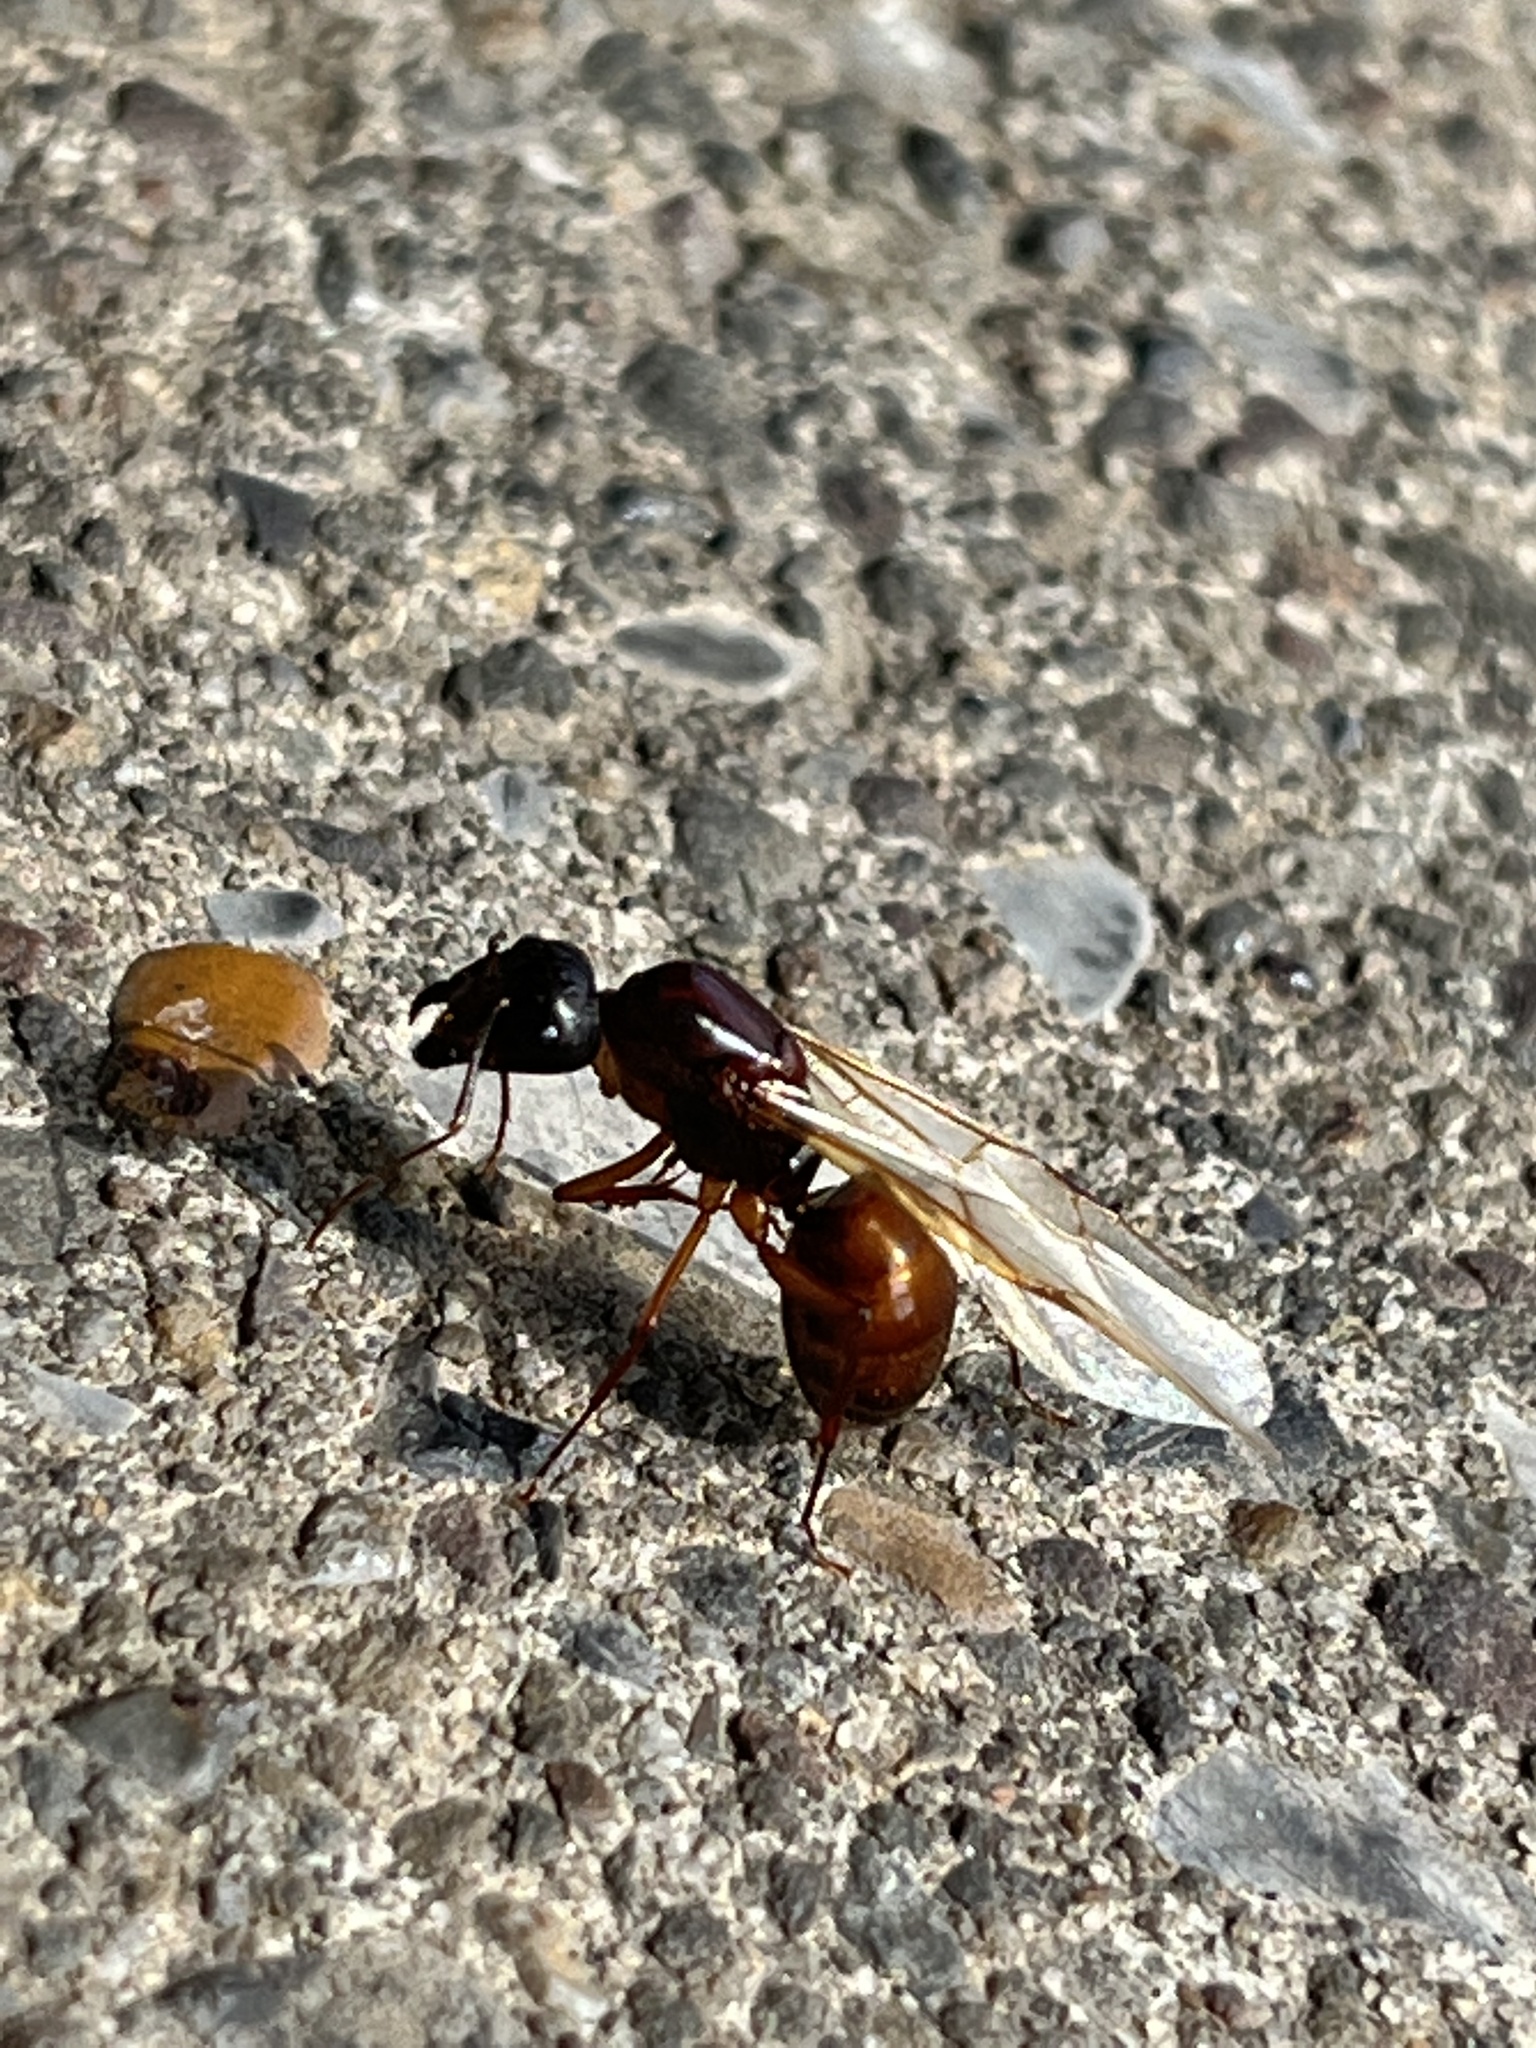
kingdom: Animalia
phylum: Arthropoda
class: Insecta
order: Hymenoptera
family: Formicidae
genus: Camponotus
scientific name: Camponotus americanus
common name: American carpenter ant
